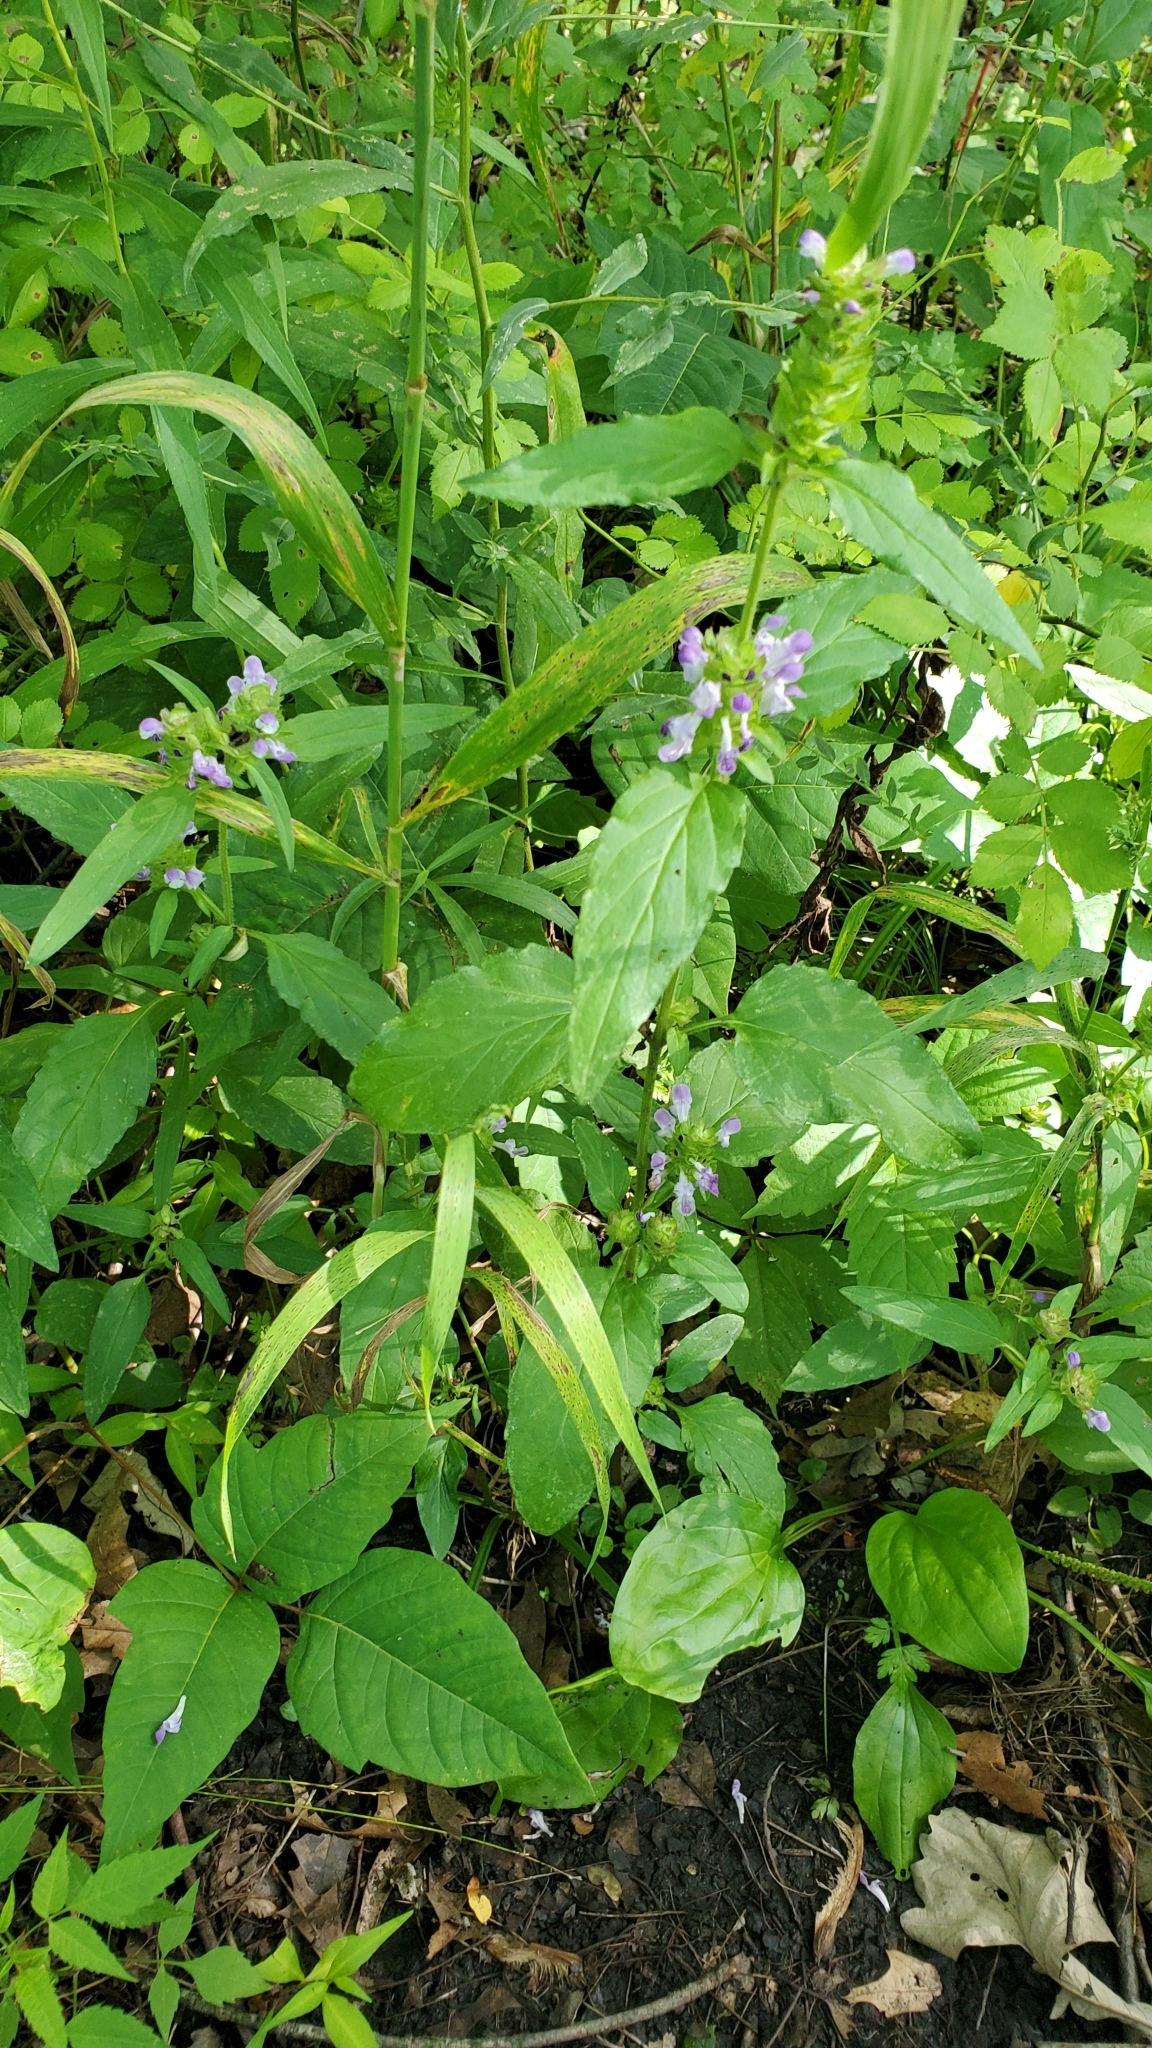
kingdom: Plantae
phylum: Tracheophyta
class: Magnoliopsida
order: Lamiales
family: Lamiaceae
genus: Prunella
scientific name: Prunella vulgaris
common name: Heal-all
